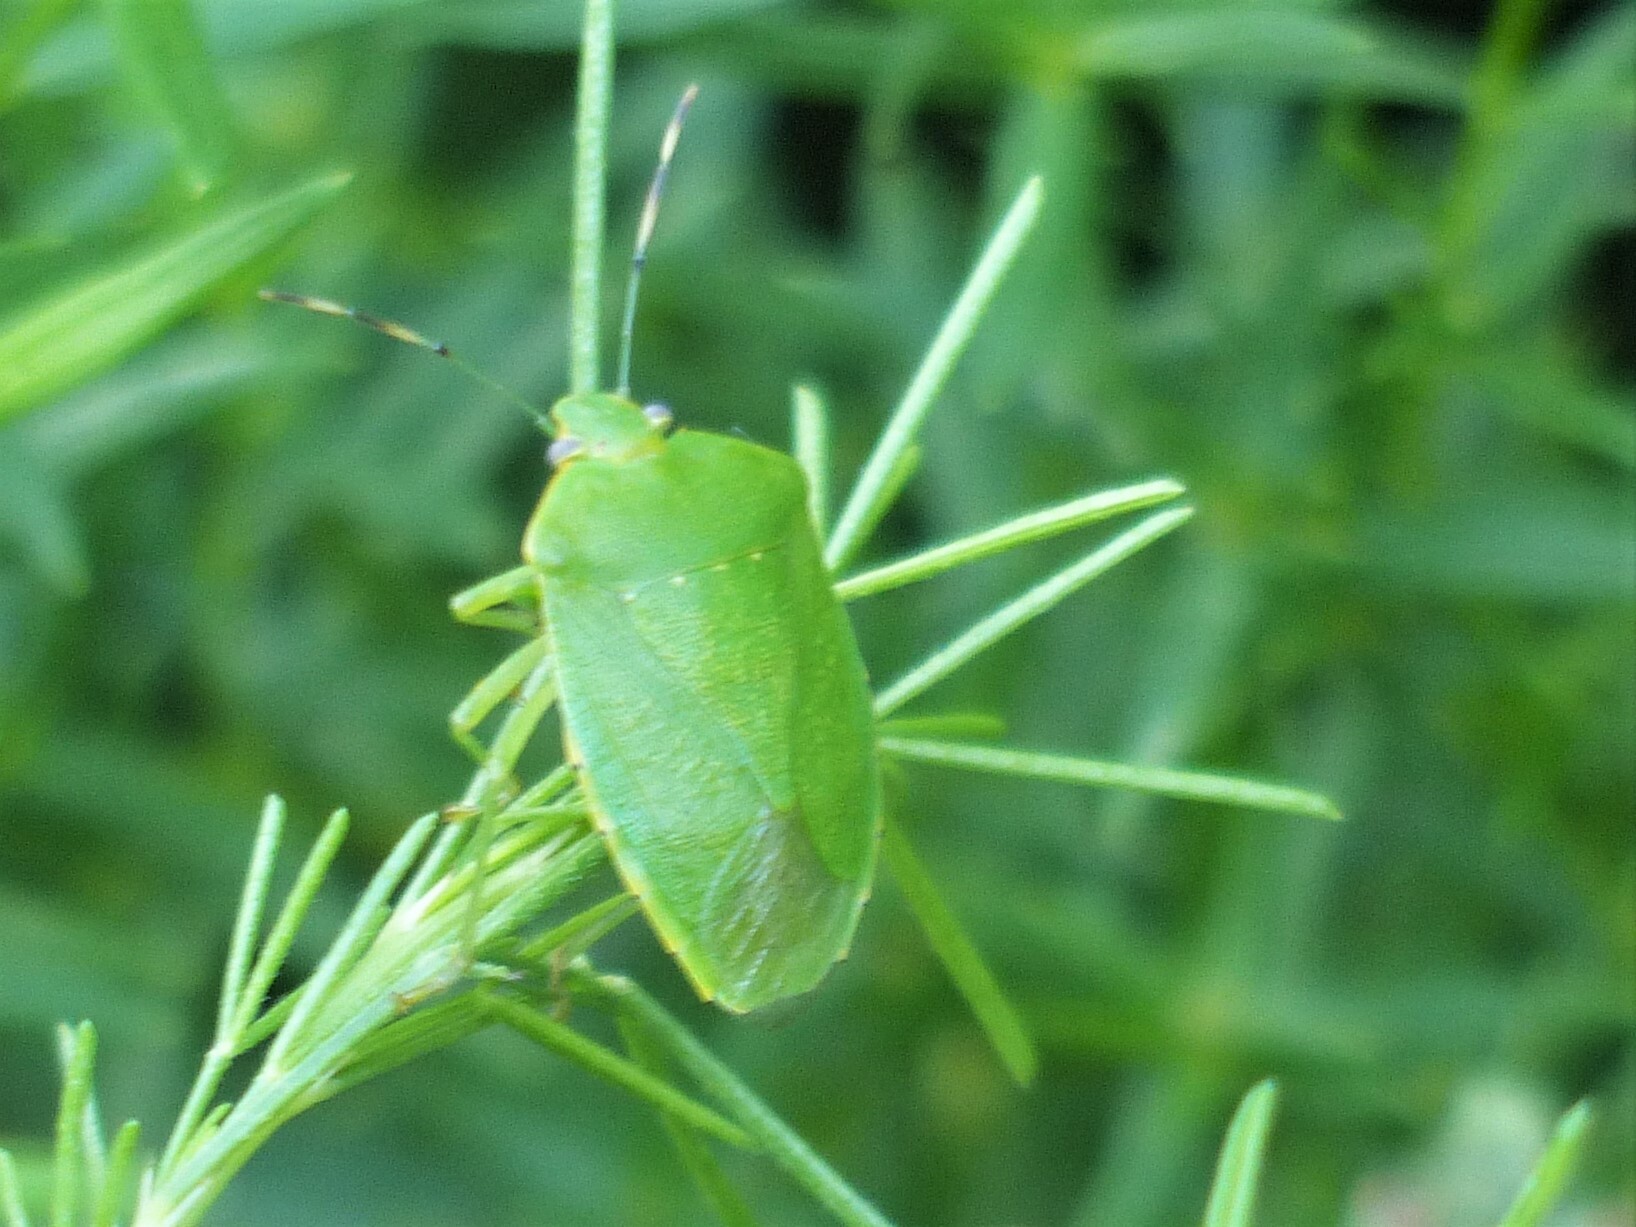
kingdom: Animalia
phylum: Arthropoda
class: Insecta
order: Hemiptera
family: Pentatomidae
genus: Chinavia
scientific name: Chinavia hilaris
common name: Green stink bug
